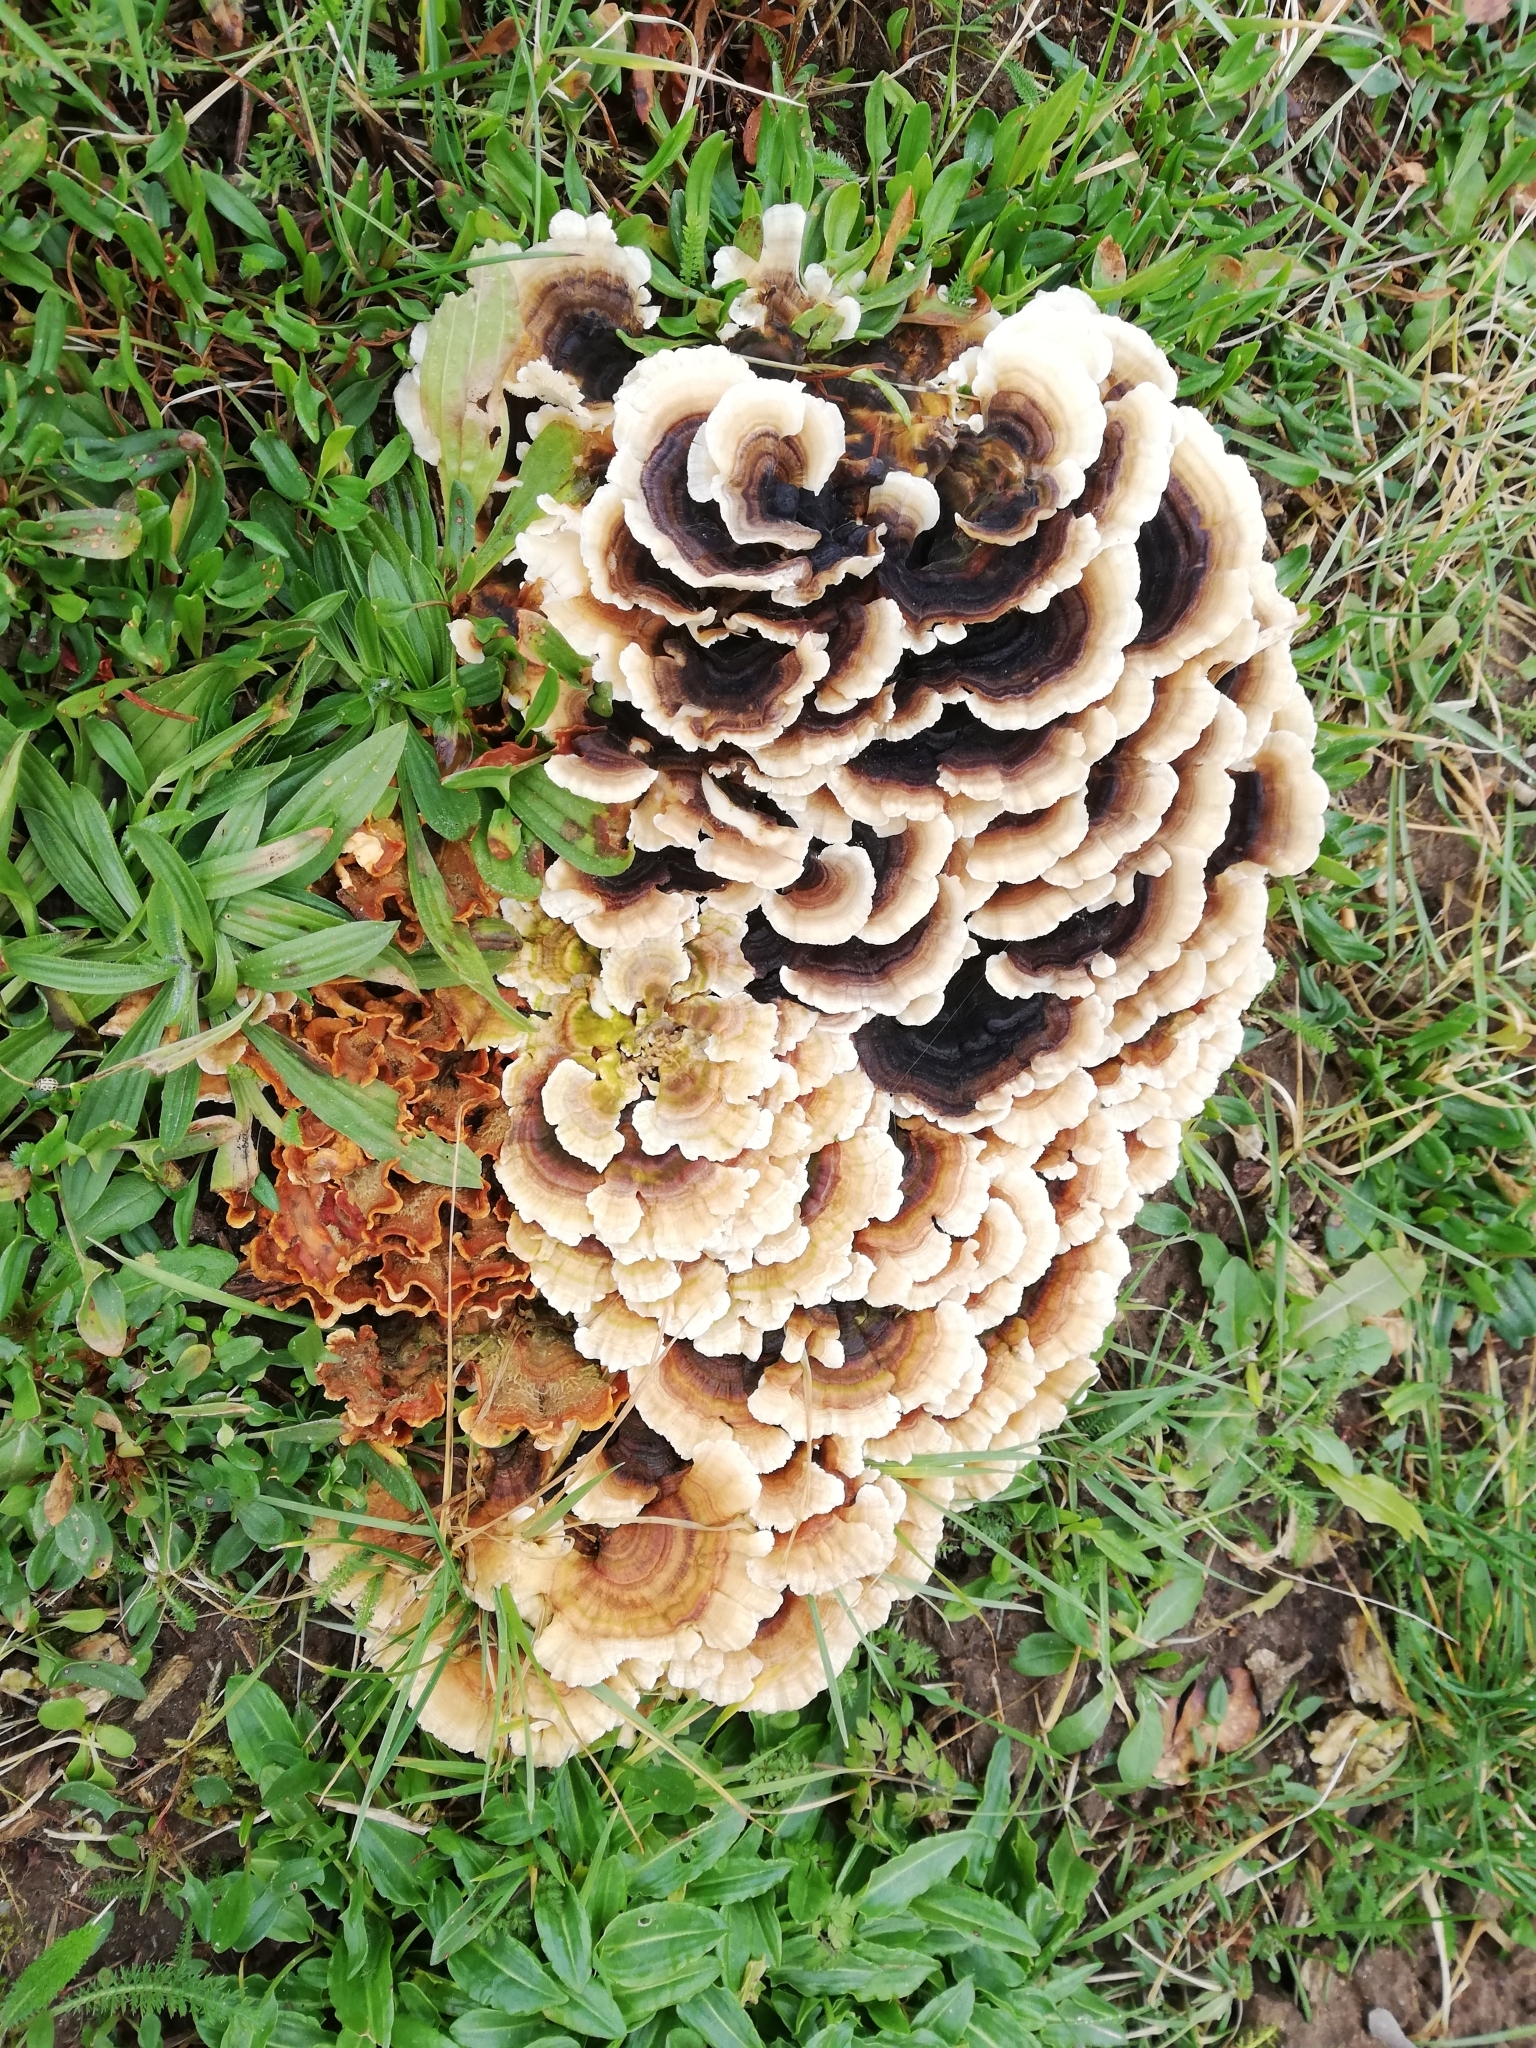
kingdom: Fungi
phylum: Basidiomycota
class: Agaricomycetes
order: Polyporales
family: Polyporaceae
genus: Trametes
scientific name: Trametes versicolor
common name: Turkeytail
